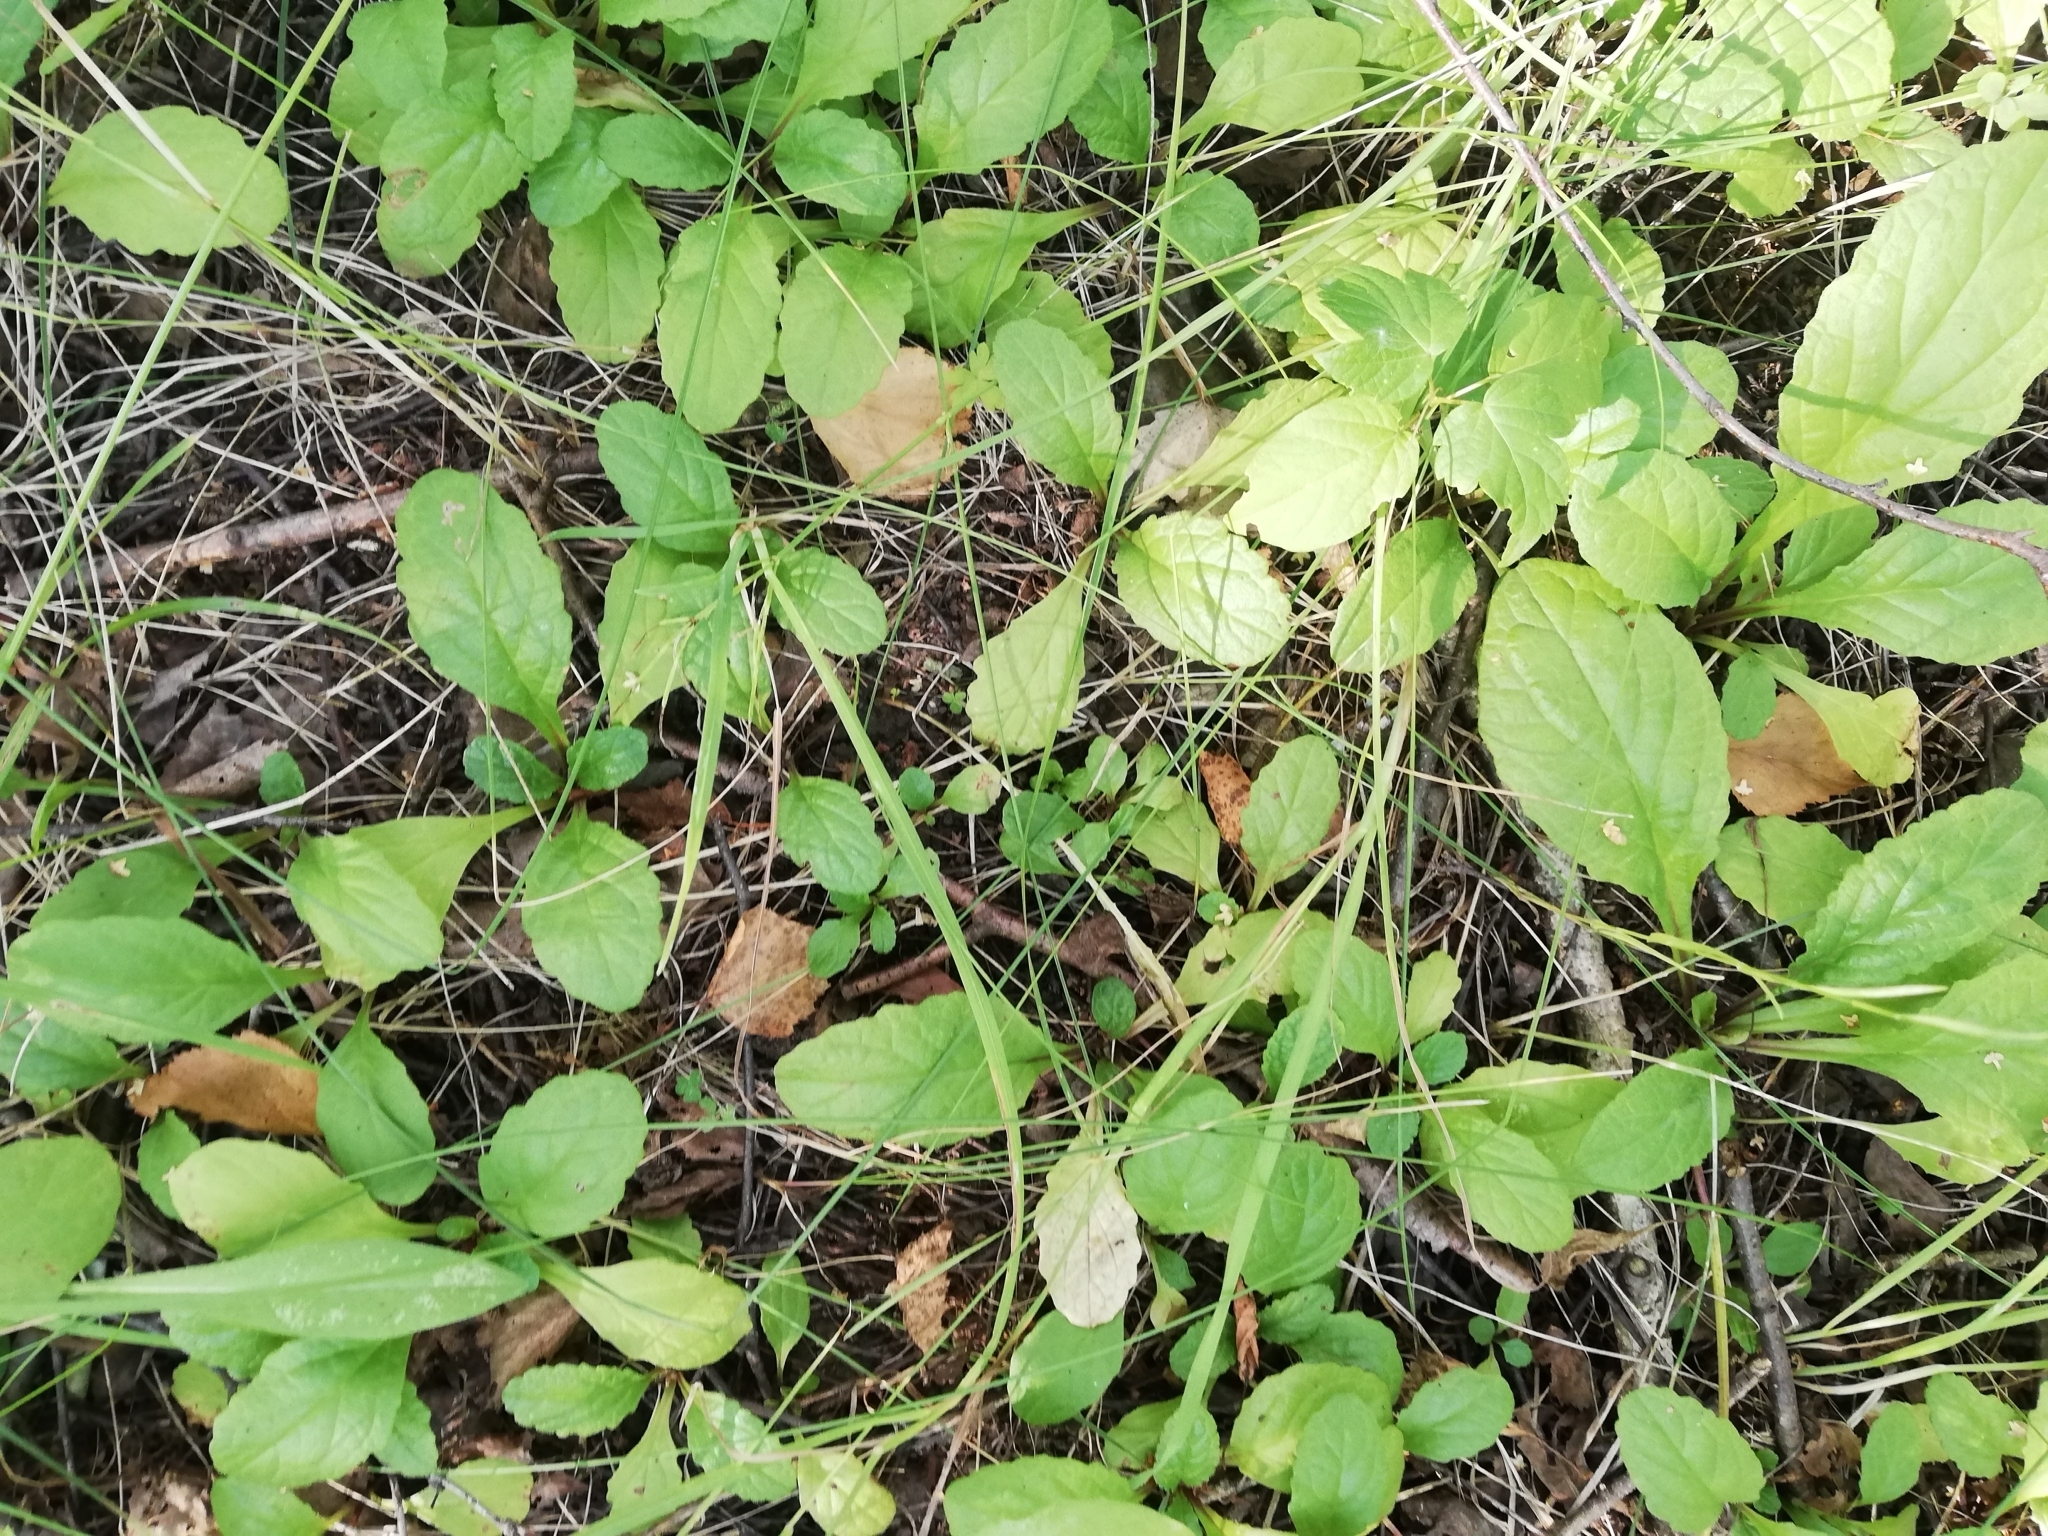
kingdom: Plantae
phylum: Tracheophyta
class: Magnoliopsida
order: Lamiales
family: Lamiaceae
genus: Ajuga
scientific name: Ajuga reptans
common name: Bugle
